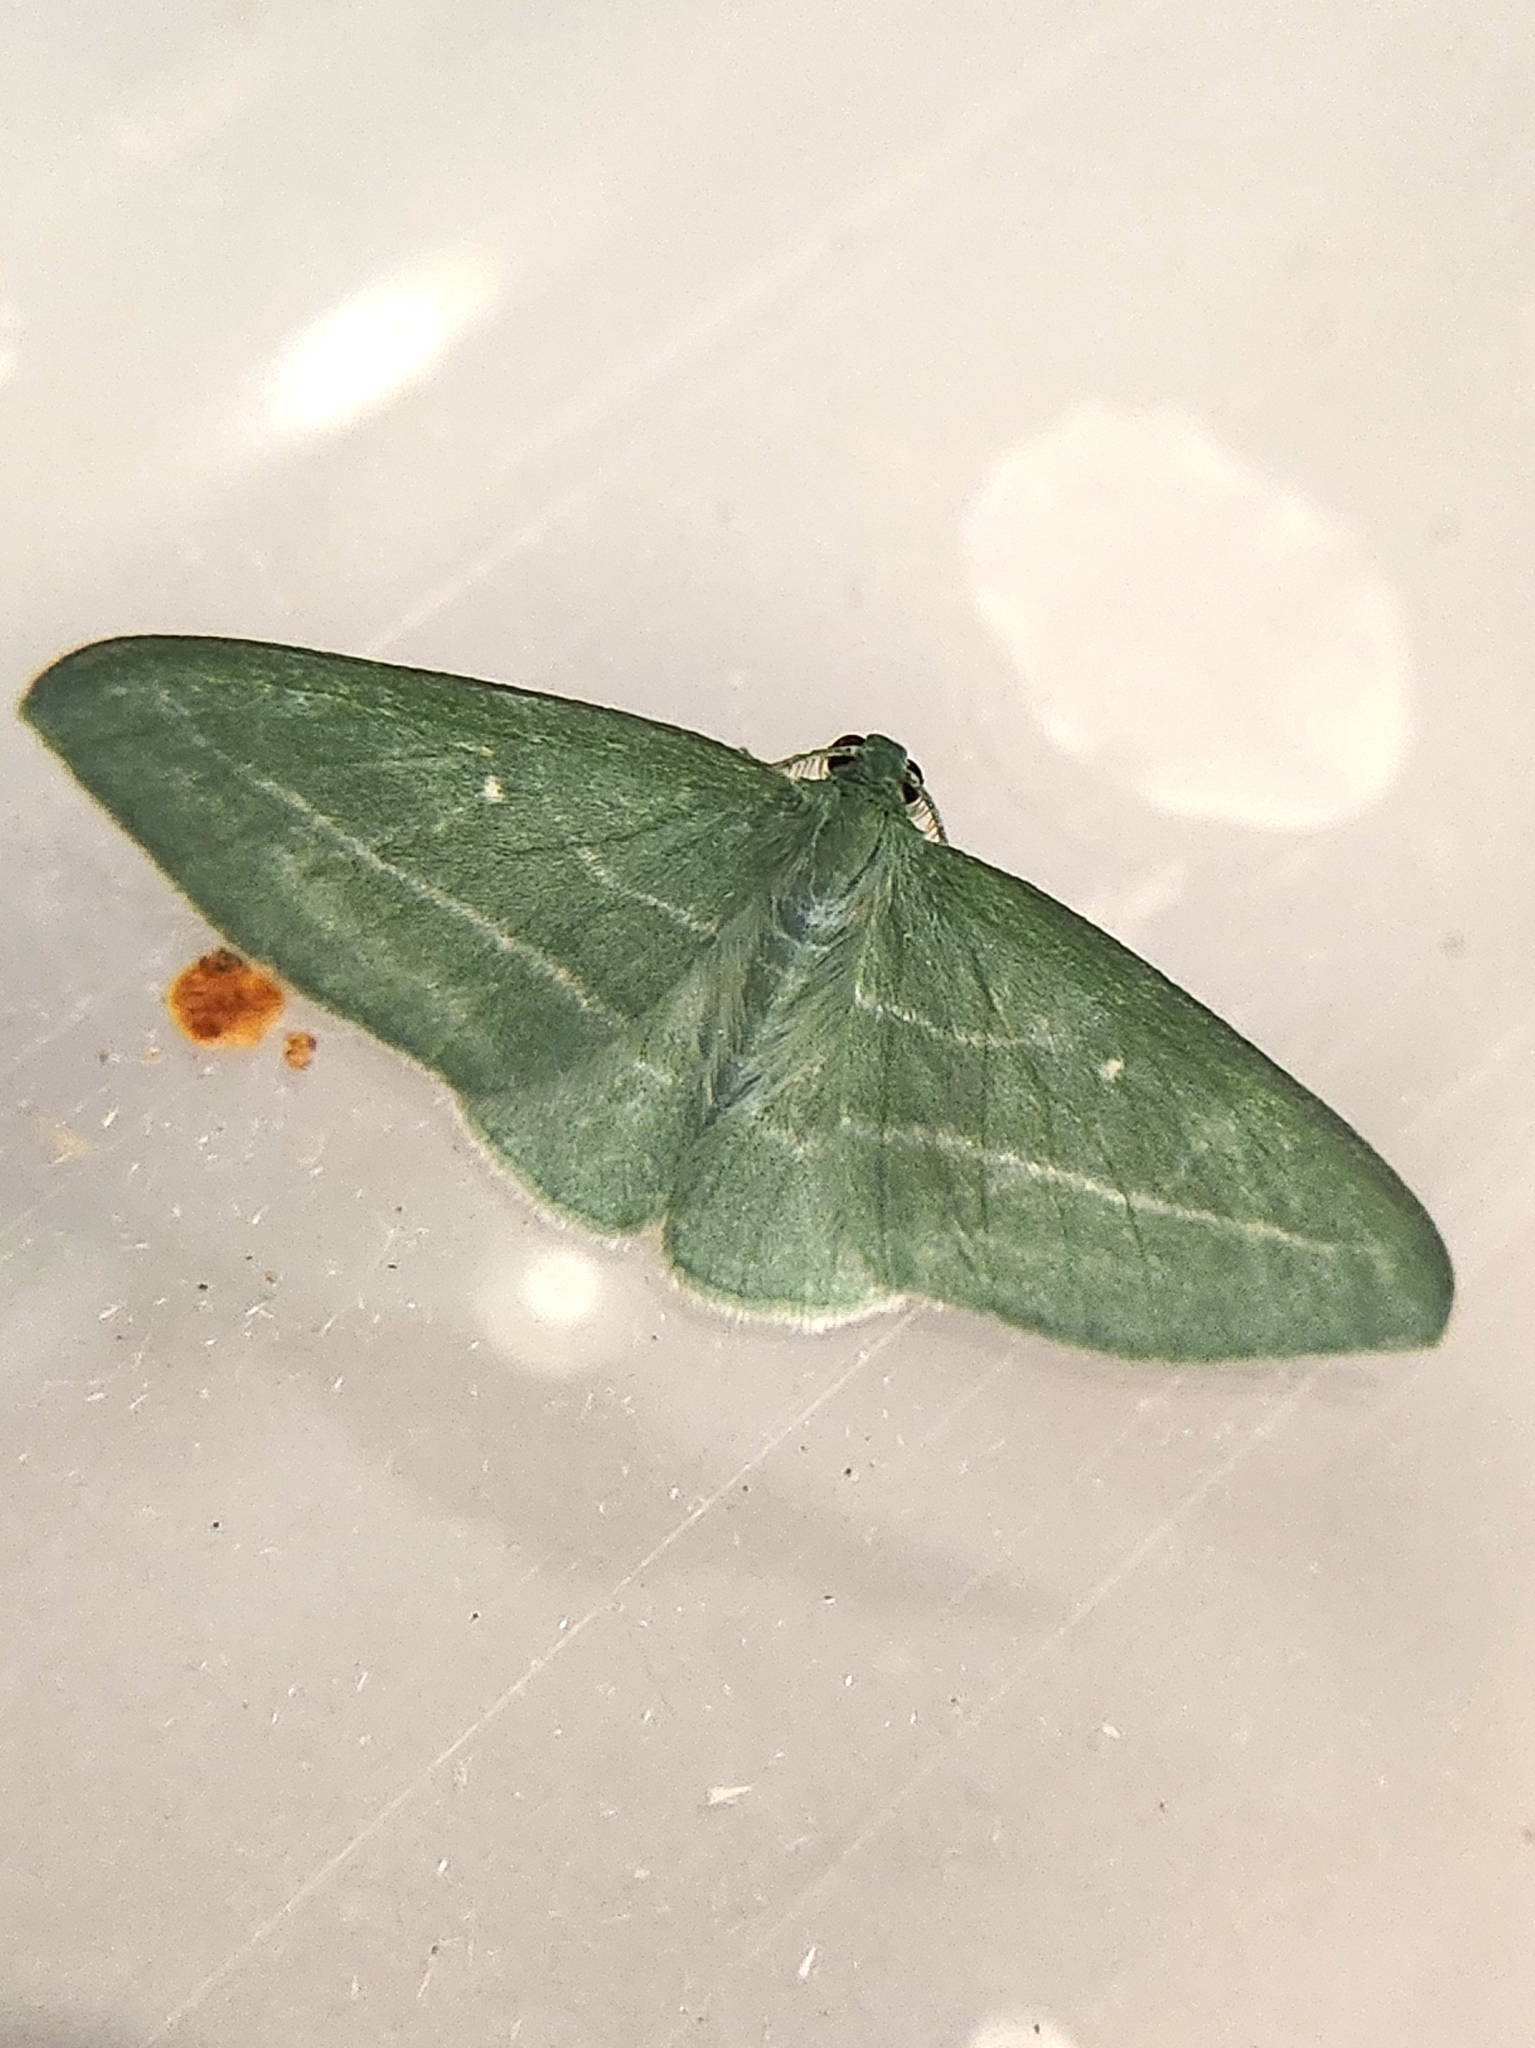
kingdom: Animalia
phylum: Arthropoda
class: Insecta
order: Lepidoptera
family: Geometridae
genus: Dyspteris
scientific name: Dyspteris abortivaria
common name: Bad-wing
